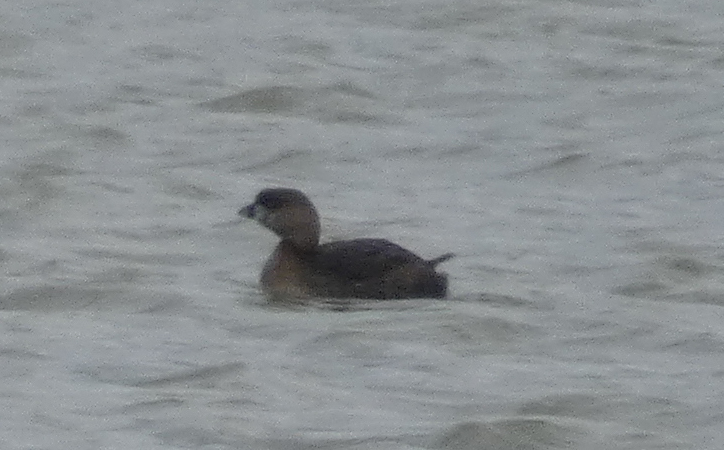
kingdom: Animalia
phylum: Chordata
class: Aves
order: Podicipediformes
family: Podicipedidae
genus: Podilymbus
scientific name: Podilymbus podiceps
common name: Pied-billed grebe
